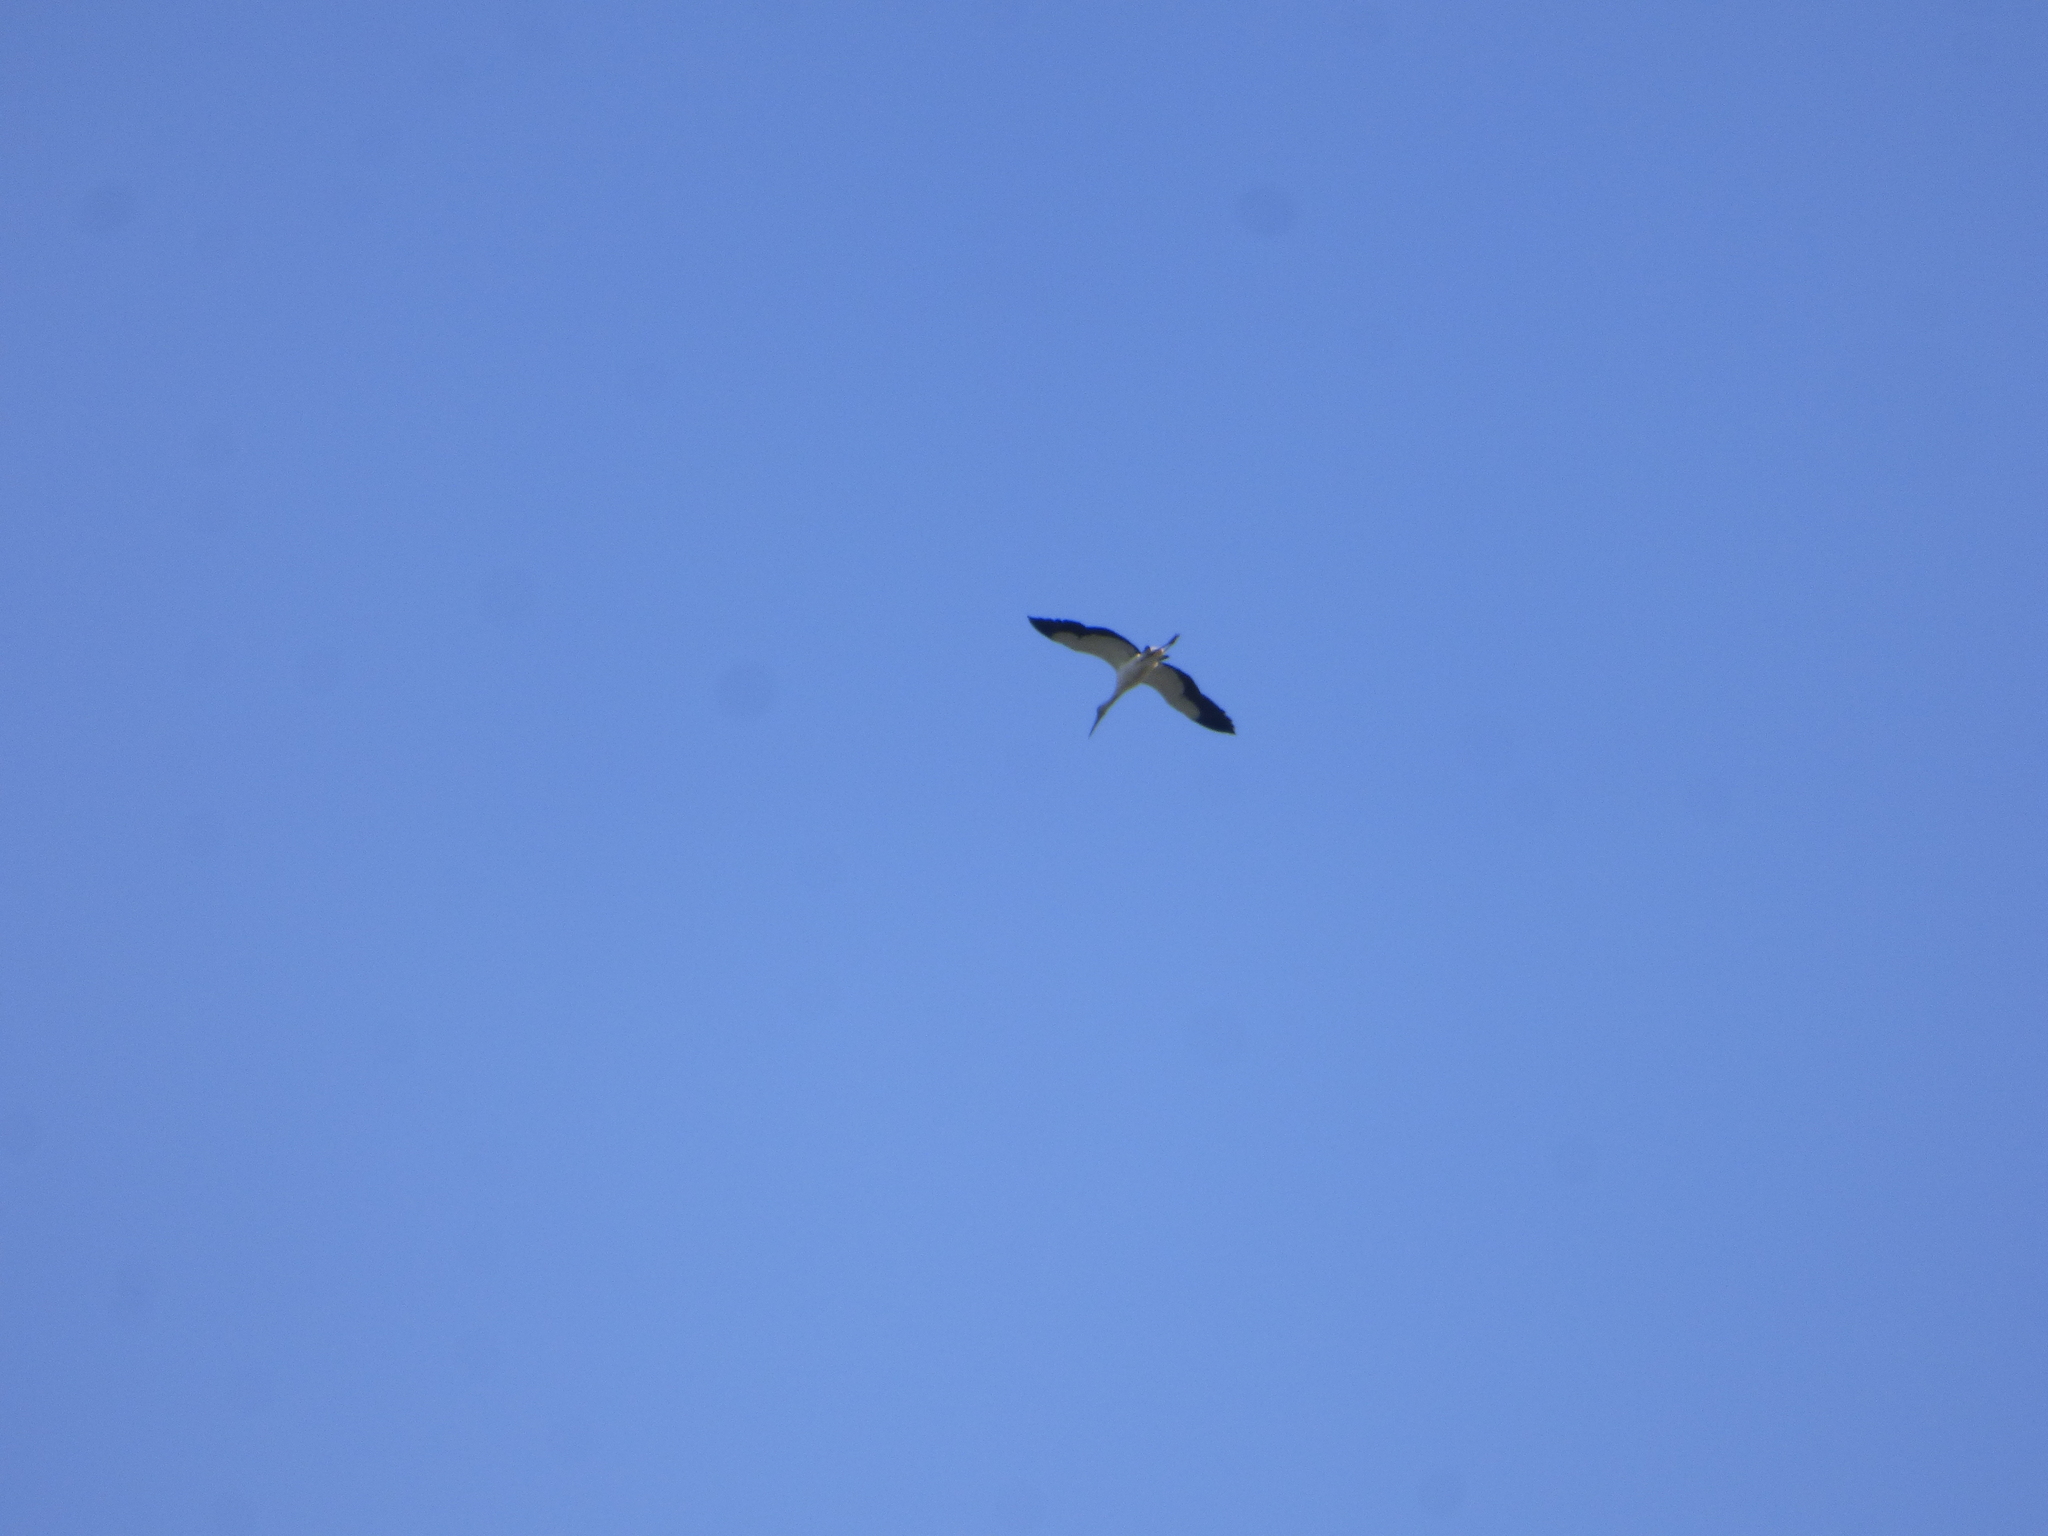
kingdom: Animalia
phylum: Chordata
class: Aves
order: Ciconiiformes
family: Ciconiidae
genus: Ciconia
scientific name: Ciconia maguari
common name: Maguari stork
